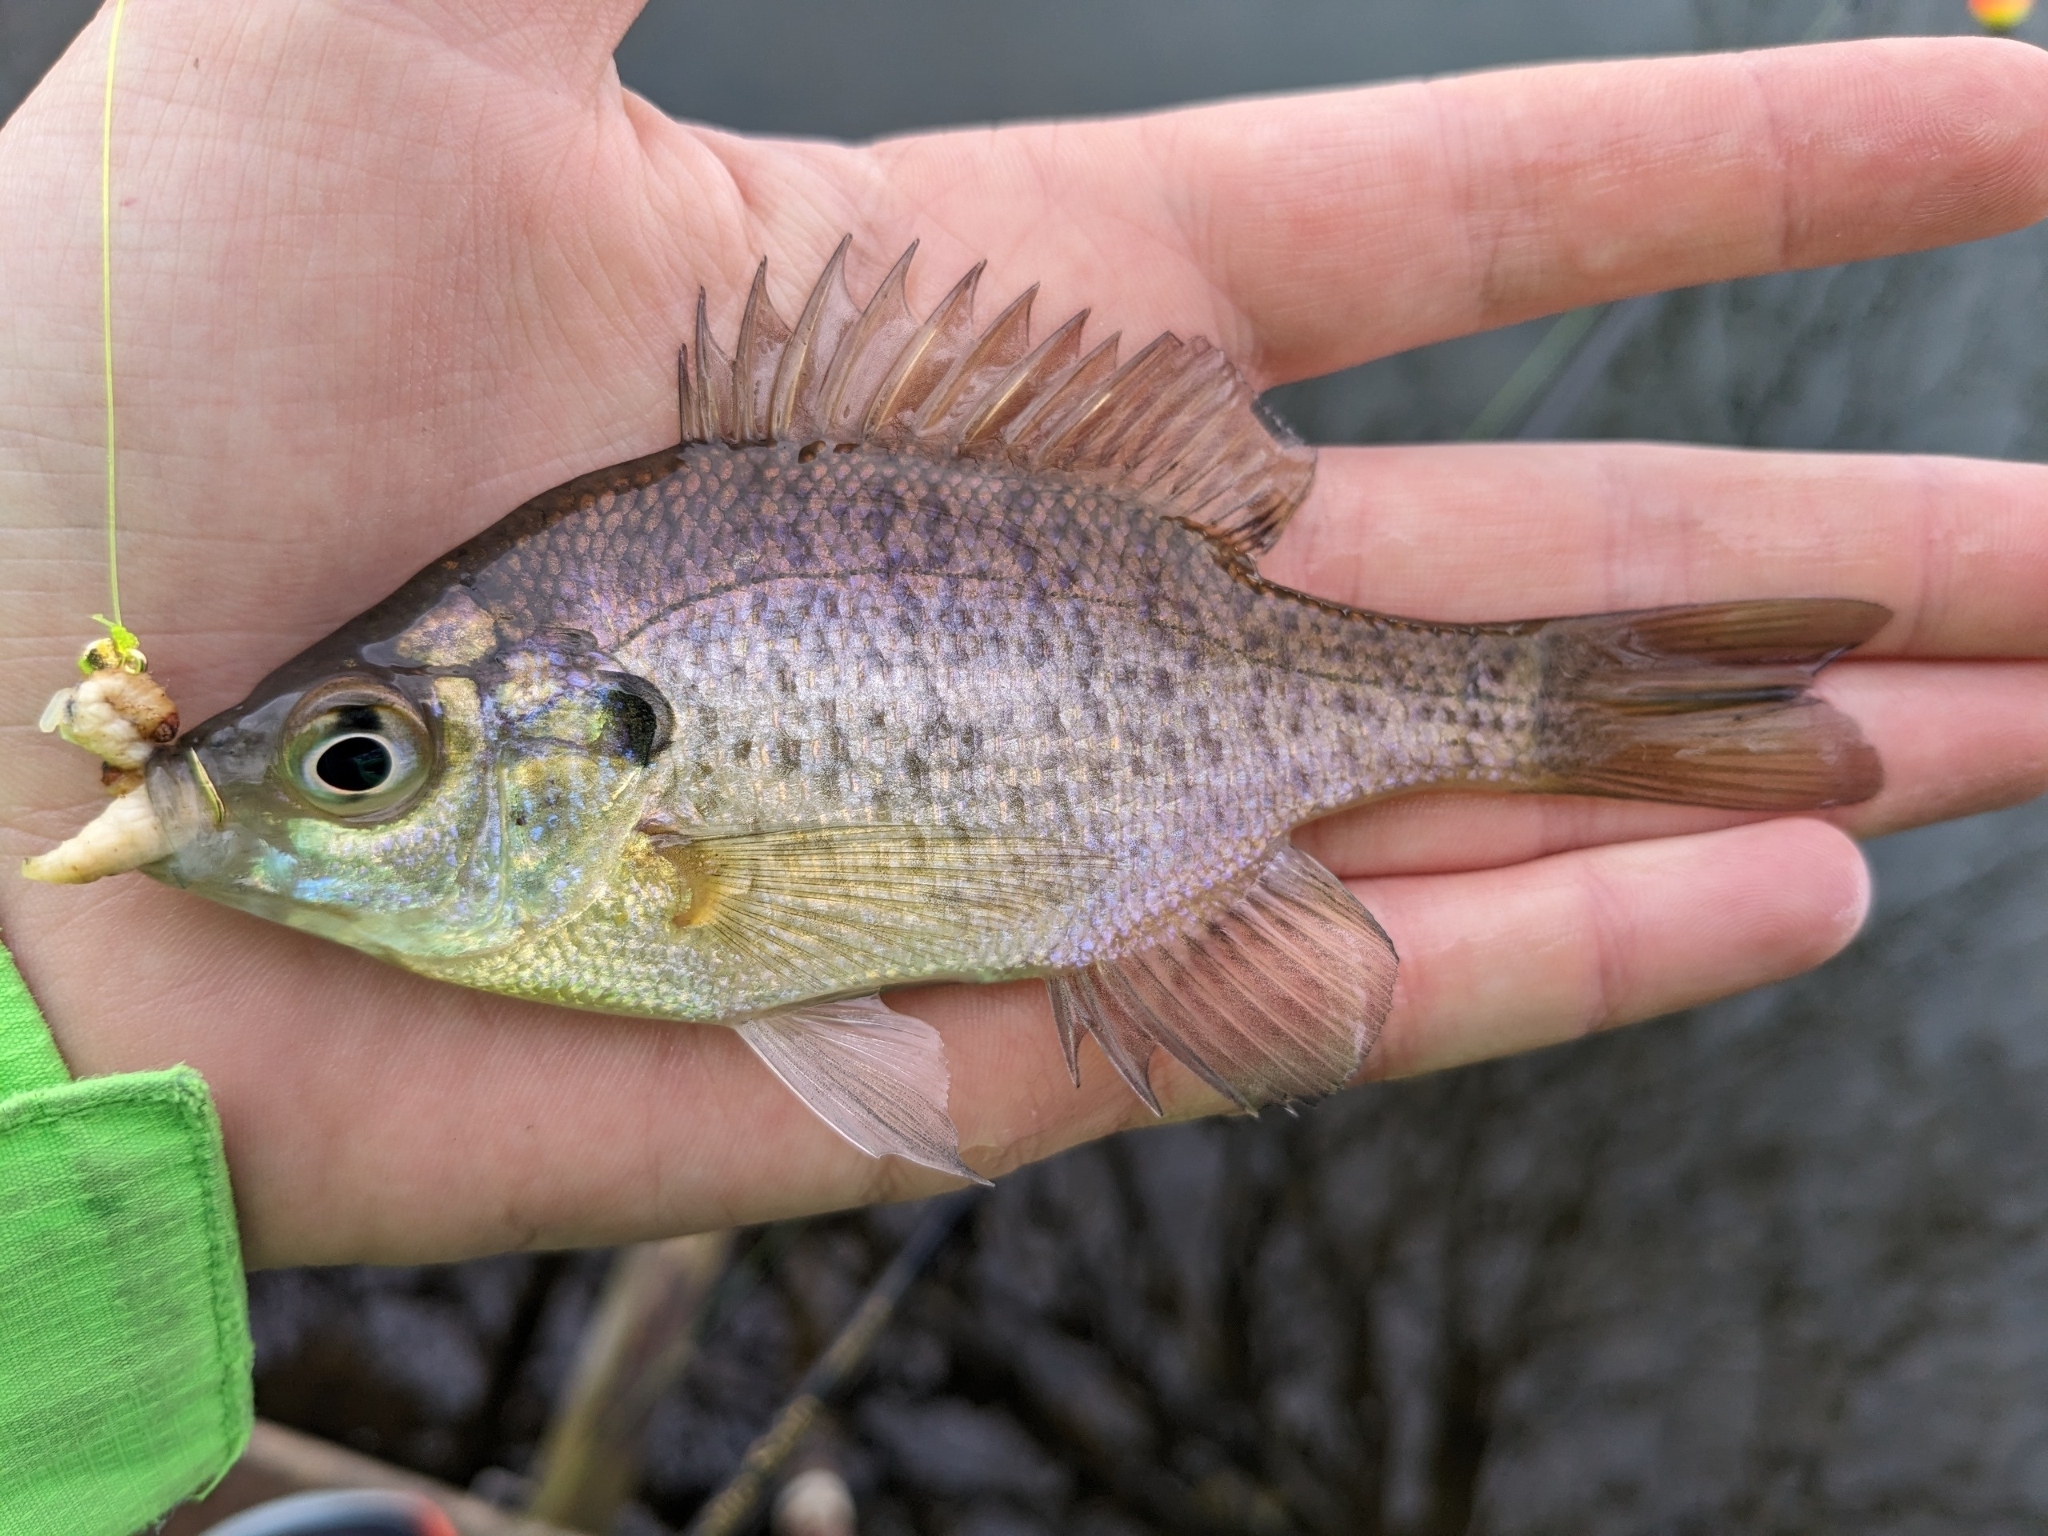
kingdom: Animalia
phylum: Chordata
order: Perciformes
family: Centrarchidae
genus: Lepomis
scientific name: Lepomis macrochirus
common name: Bluegill
